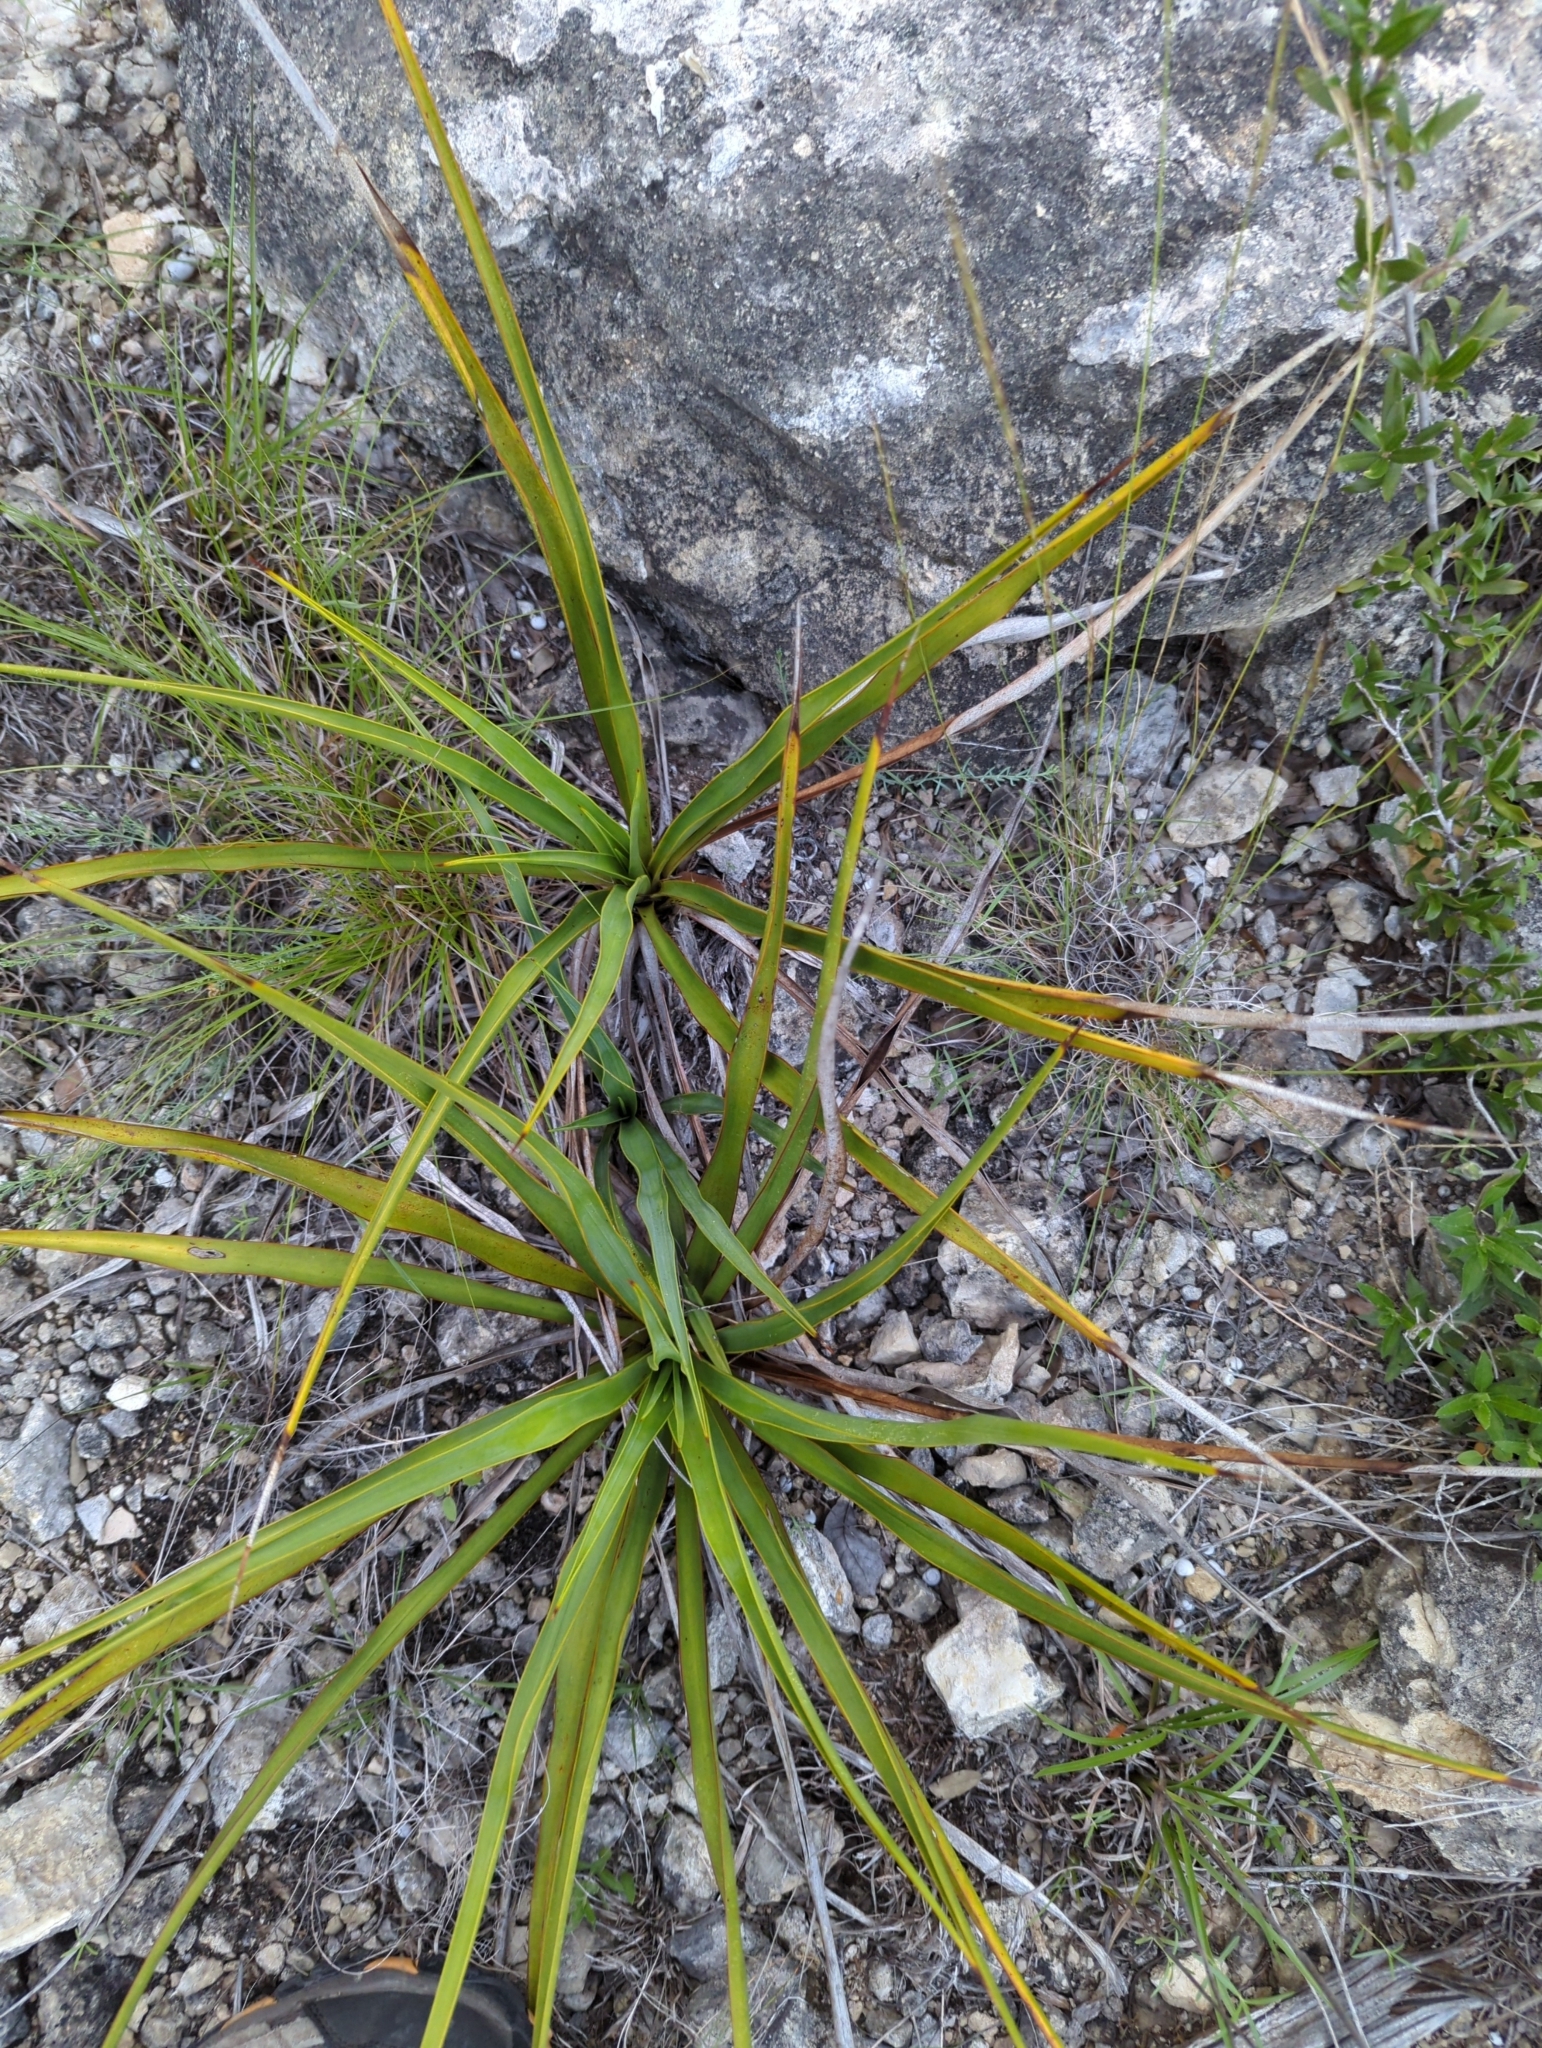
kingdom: Plantae
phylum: Tracheophyta
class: Liliopsida
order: Asparagales
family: Asparagaceae
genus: Yucca
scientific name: Yucca rupicola
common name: Twisted-leaf spanish-dagger
